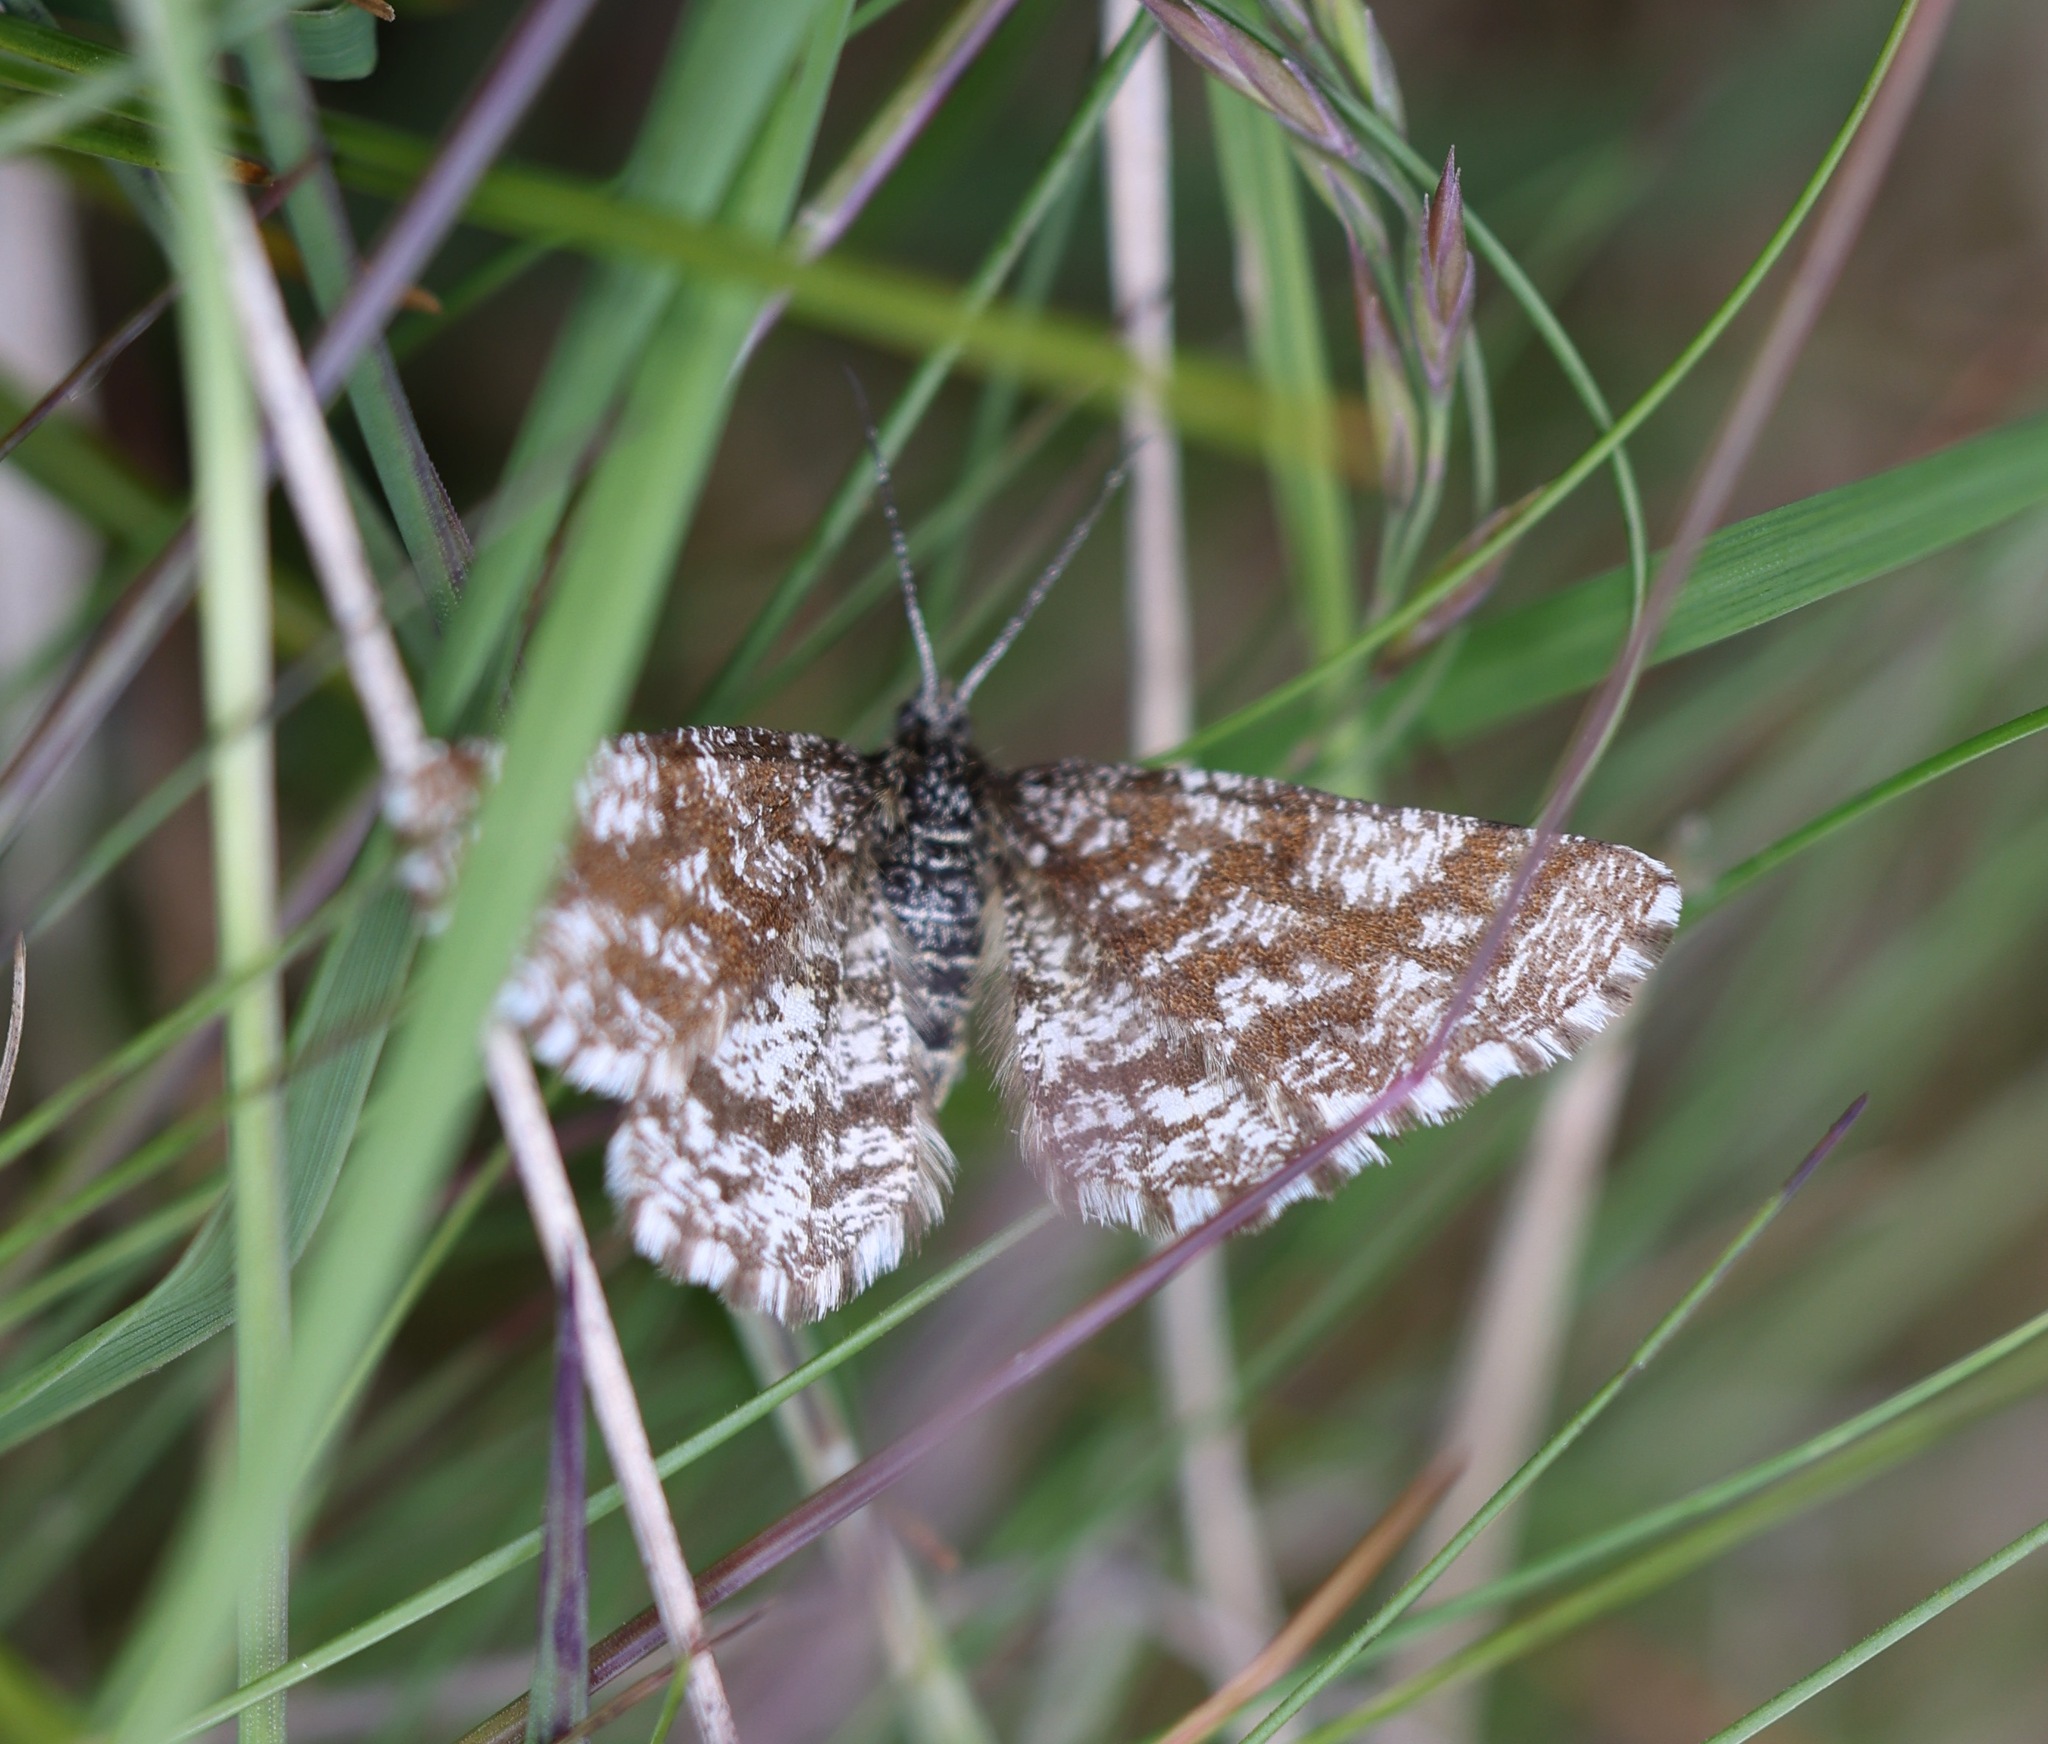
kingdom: Animalia
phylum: Arthropoda
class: Insecta
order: Lepidoptera
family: Geometridae
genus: Ematurga
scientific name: Ematurga atomaria
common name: Common heath
